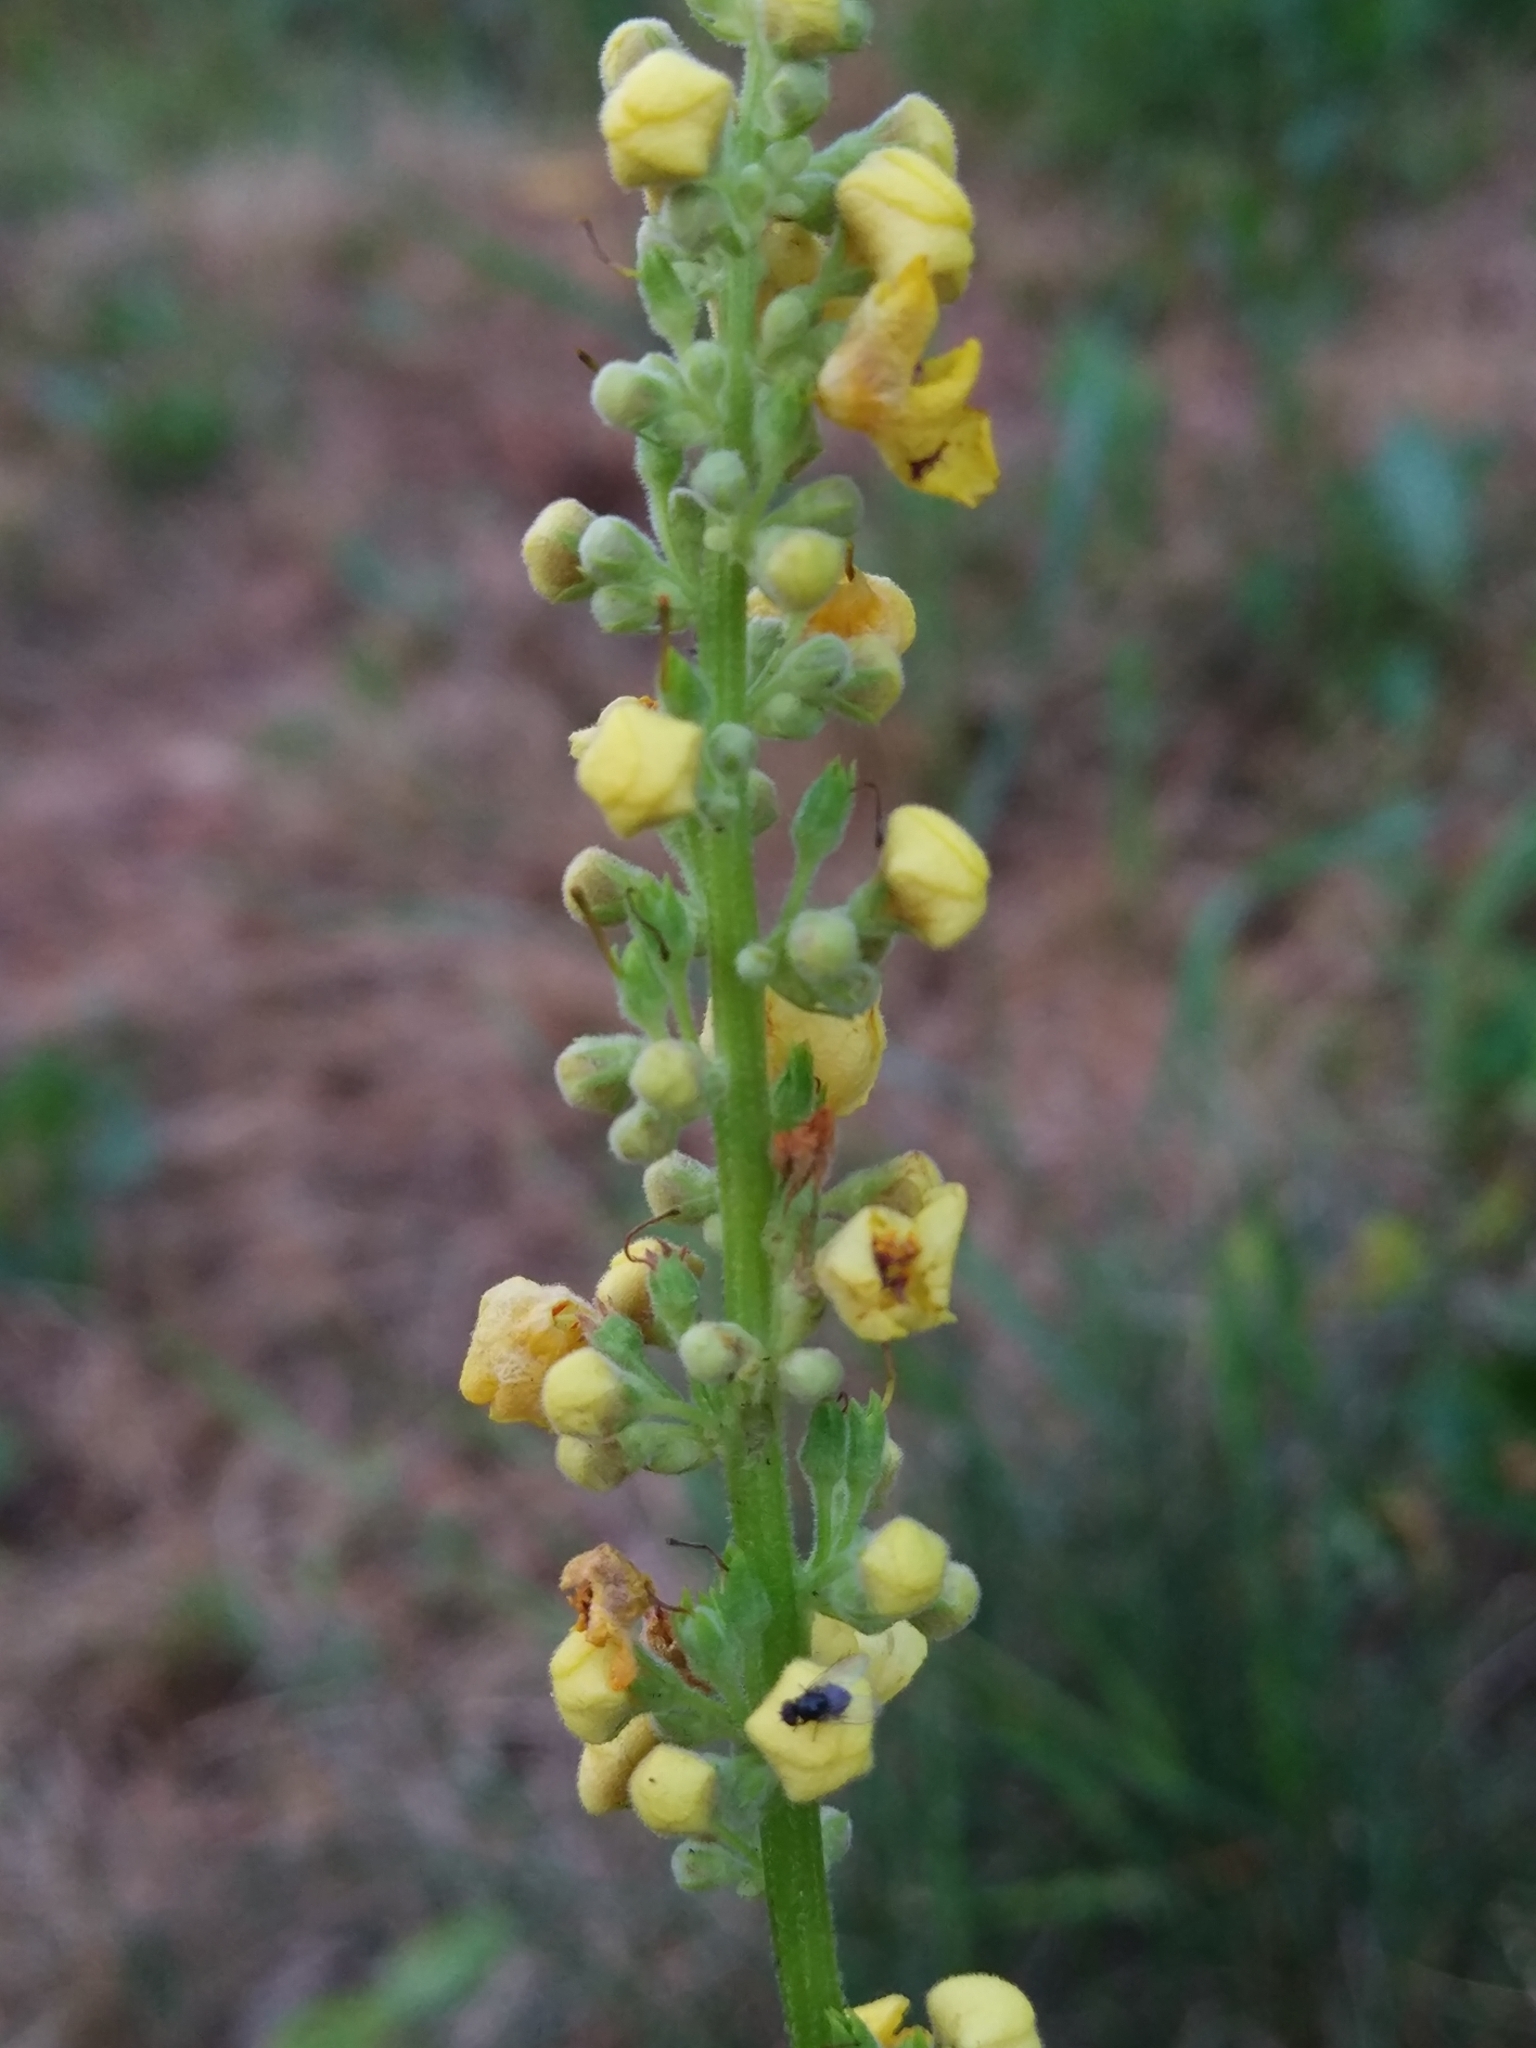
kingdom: Plantae
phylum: Tracheophyta
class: Magnoliopsida
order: Lamiales
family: Scrophulariaceae
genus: Verbascum
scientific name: Verbascum nigrum
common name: Dark mullein
